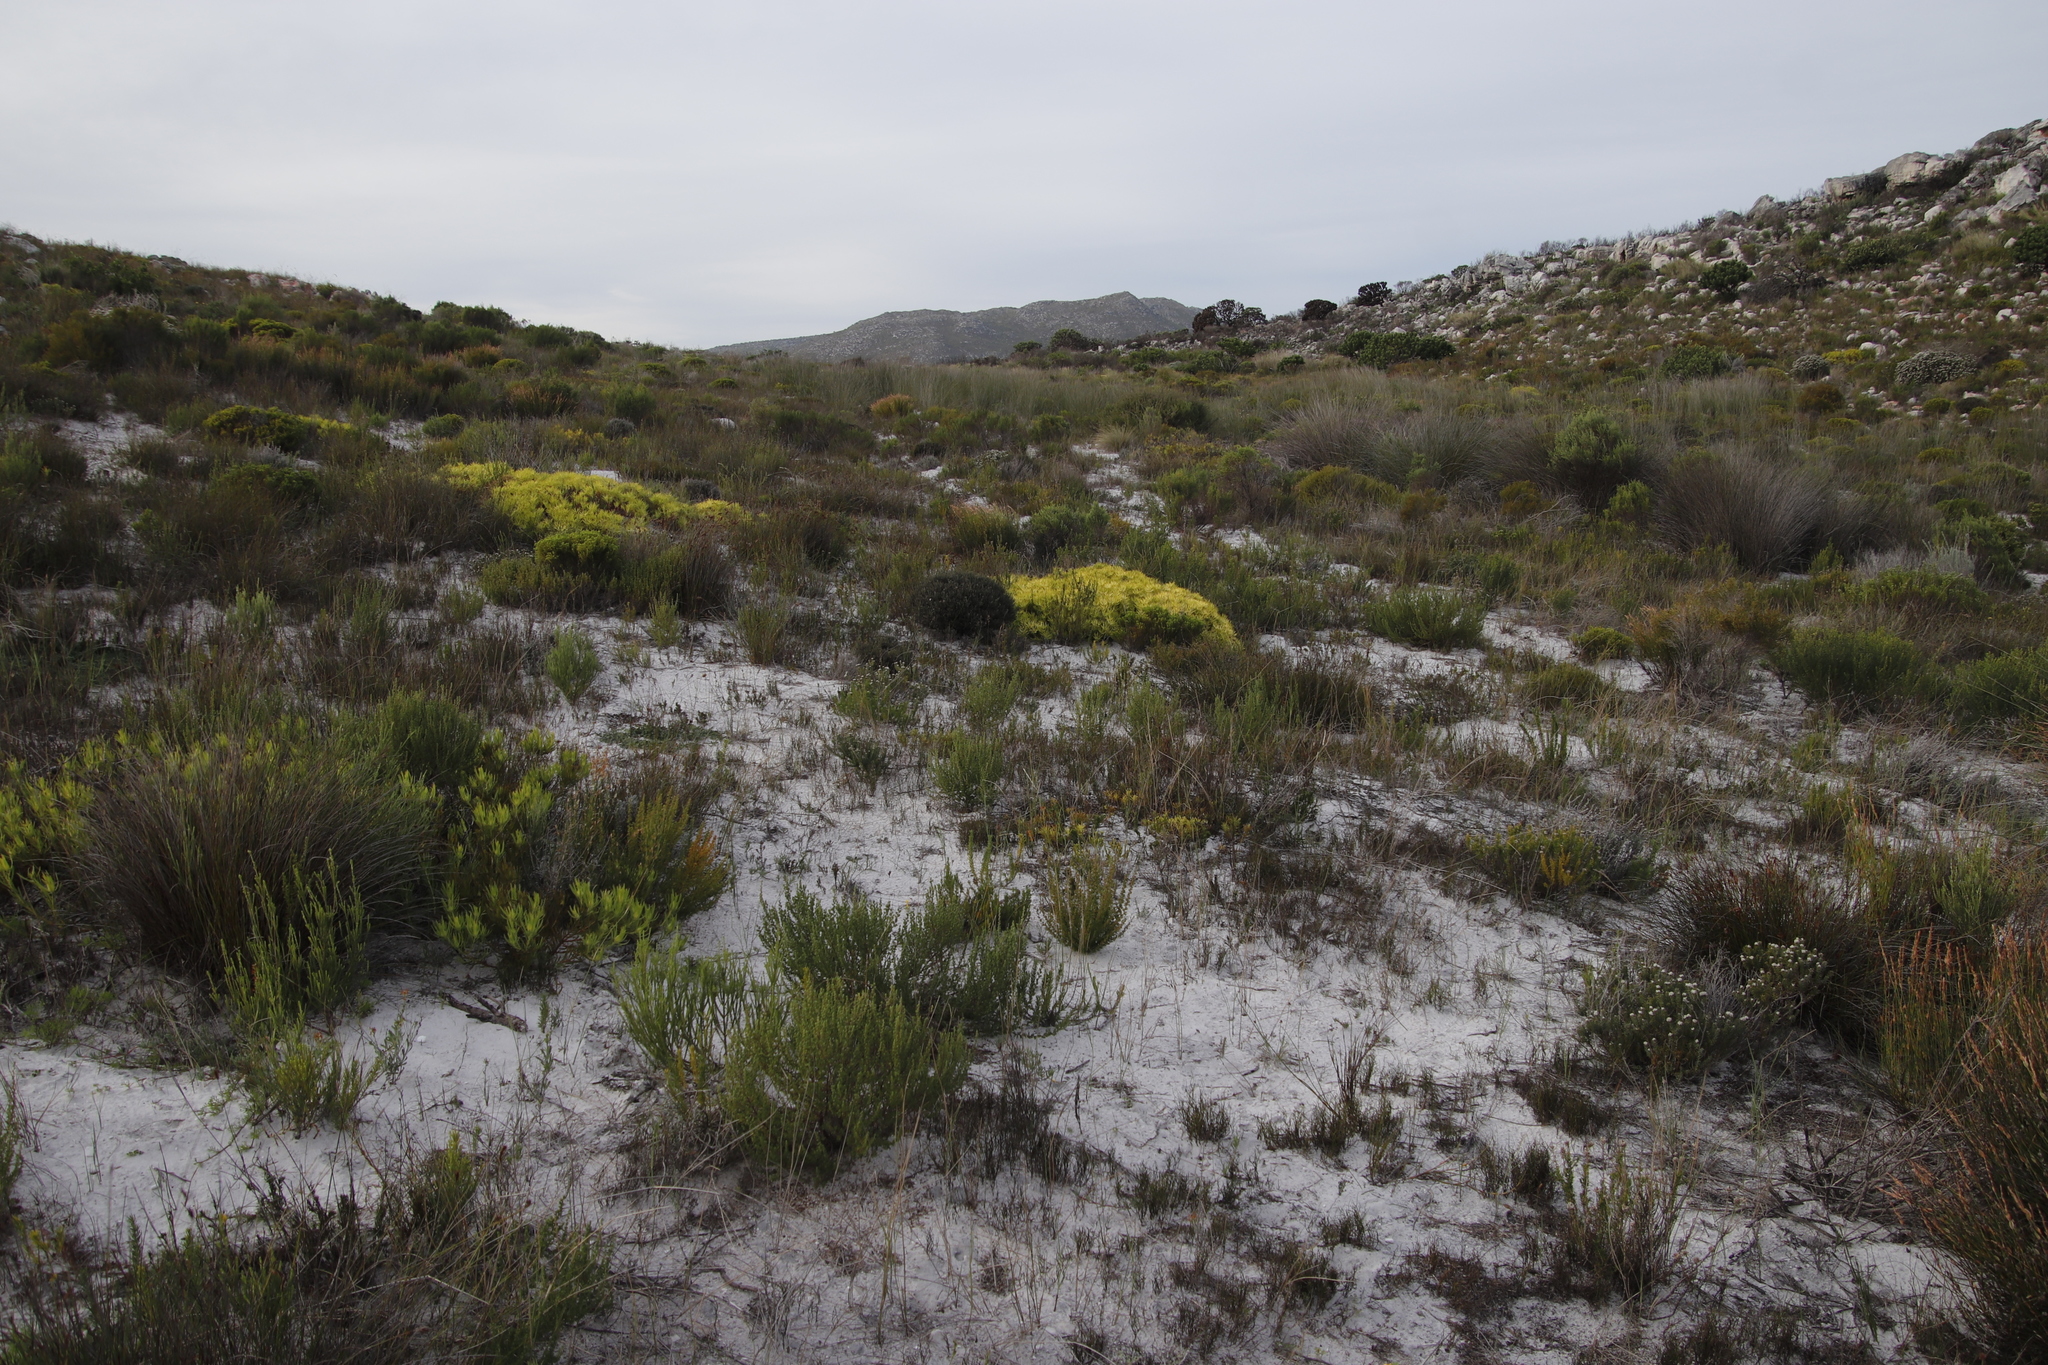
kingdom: Plantae
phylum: Tracheophyta
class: Magnoliopsida
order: Proteales
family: Proteaceae
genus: Leucadendron
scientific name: Leucadendron salignum
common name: Common sunshine conebush
